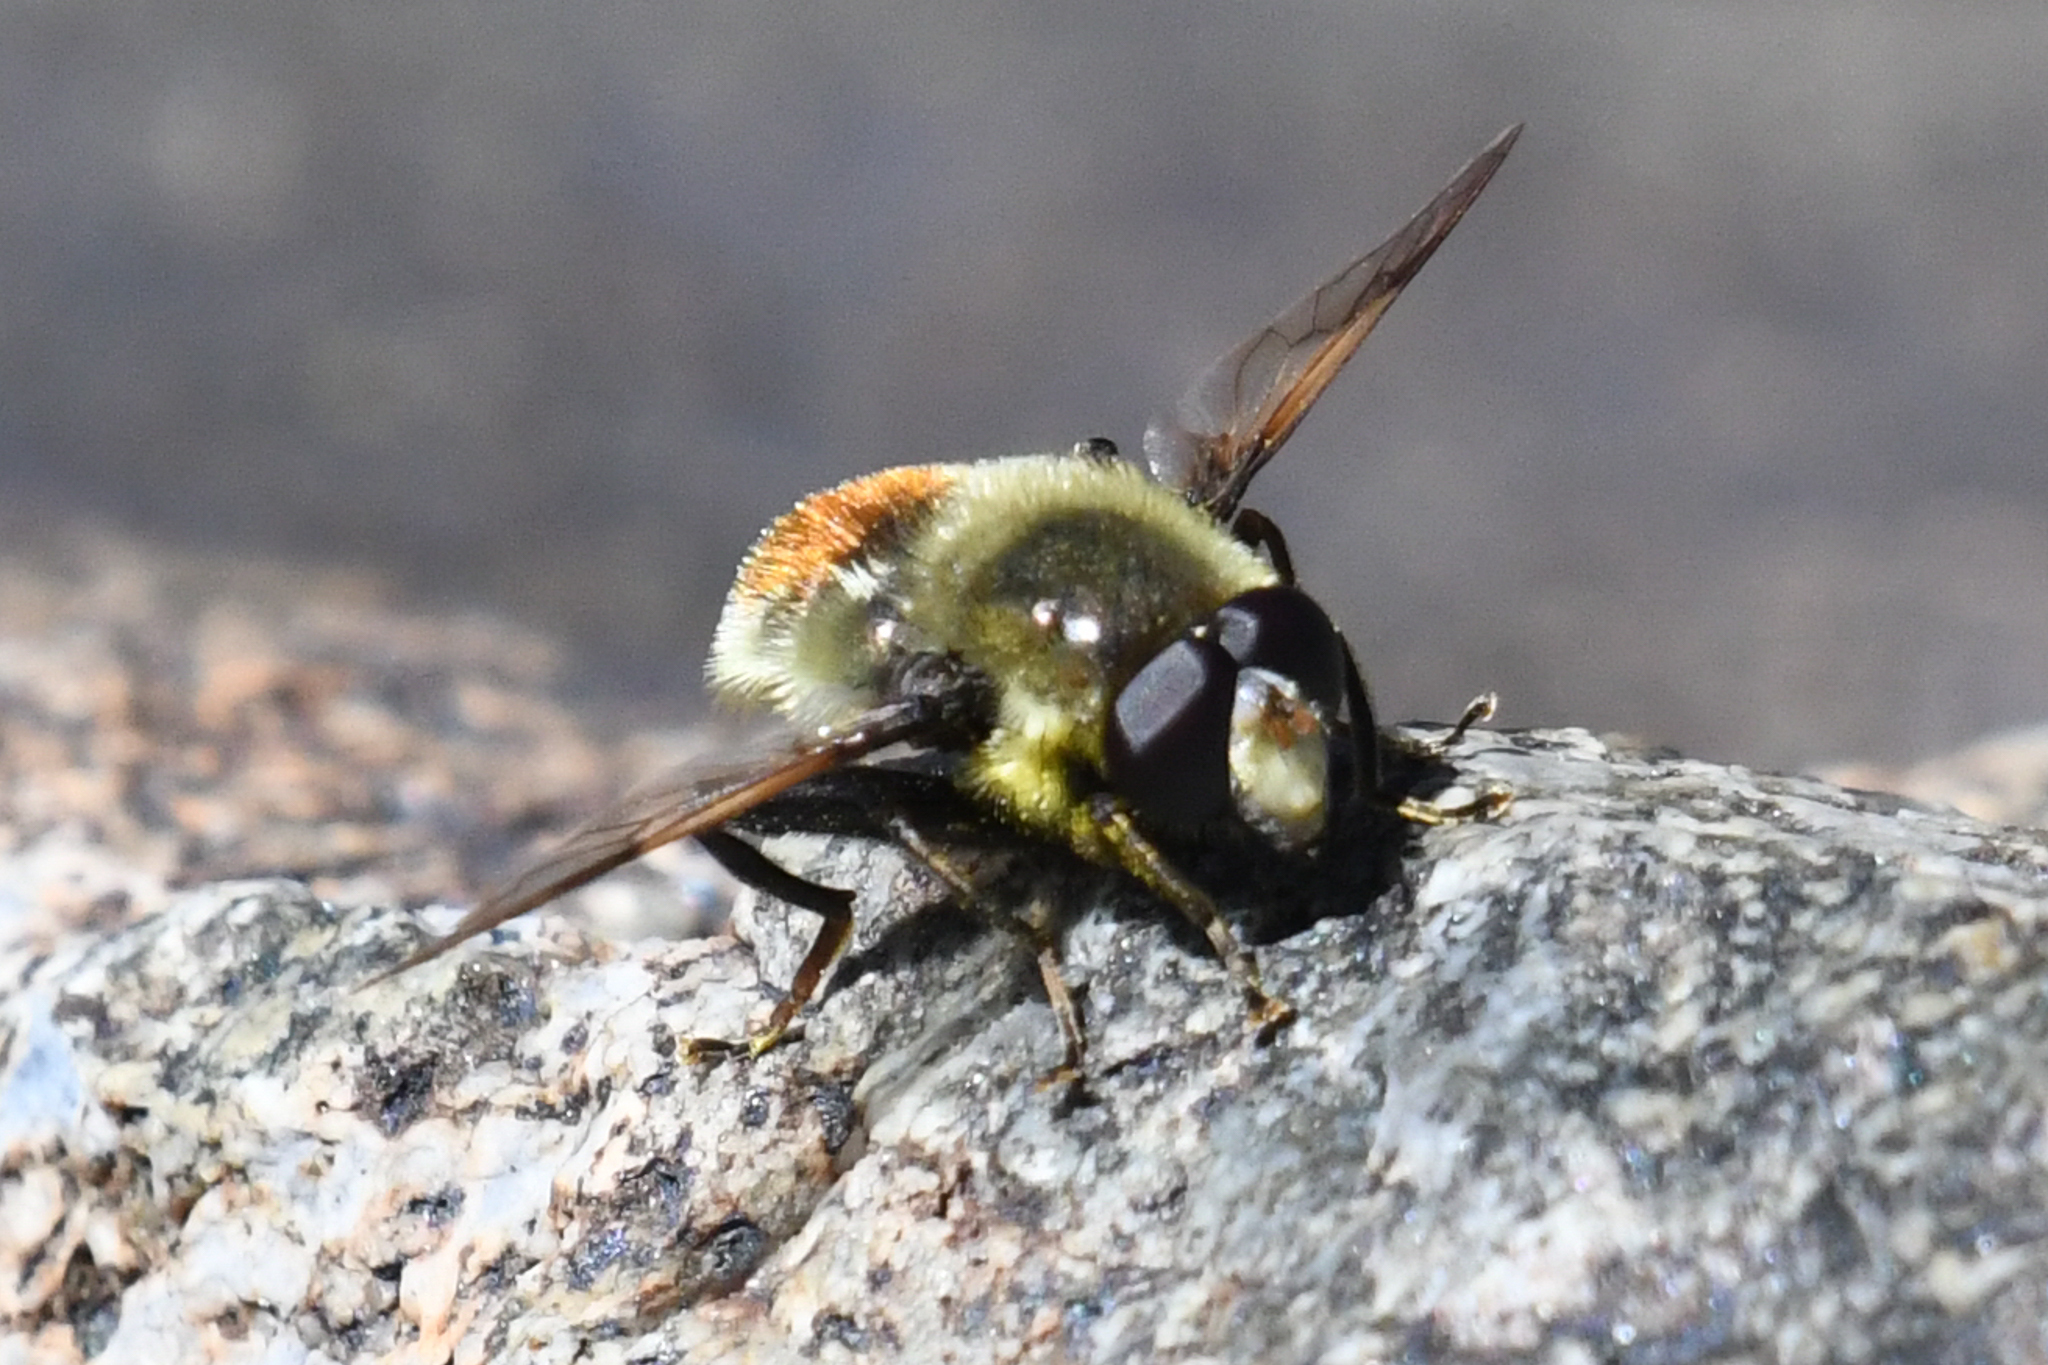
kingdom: Animalia
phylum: Arthropoda
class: Insecta
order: Diptera
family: Syrphidae
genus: Sericomyia
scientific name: Sericomyia flagrans
